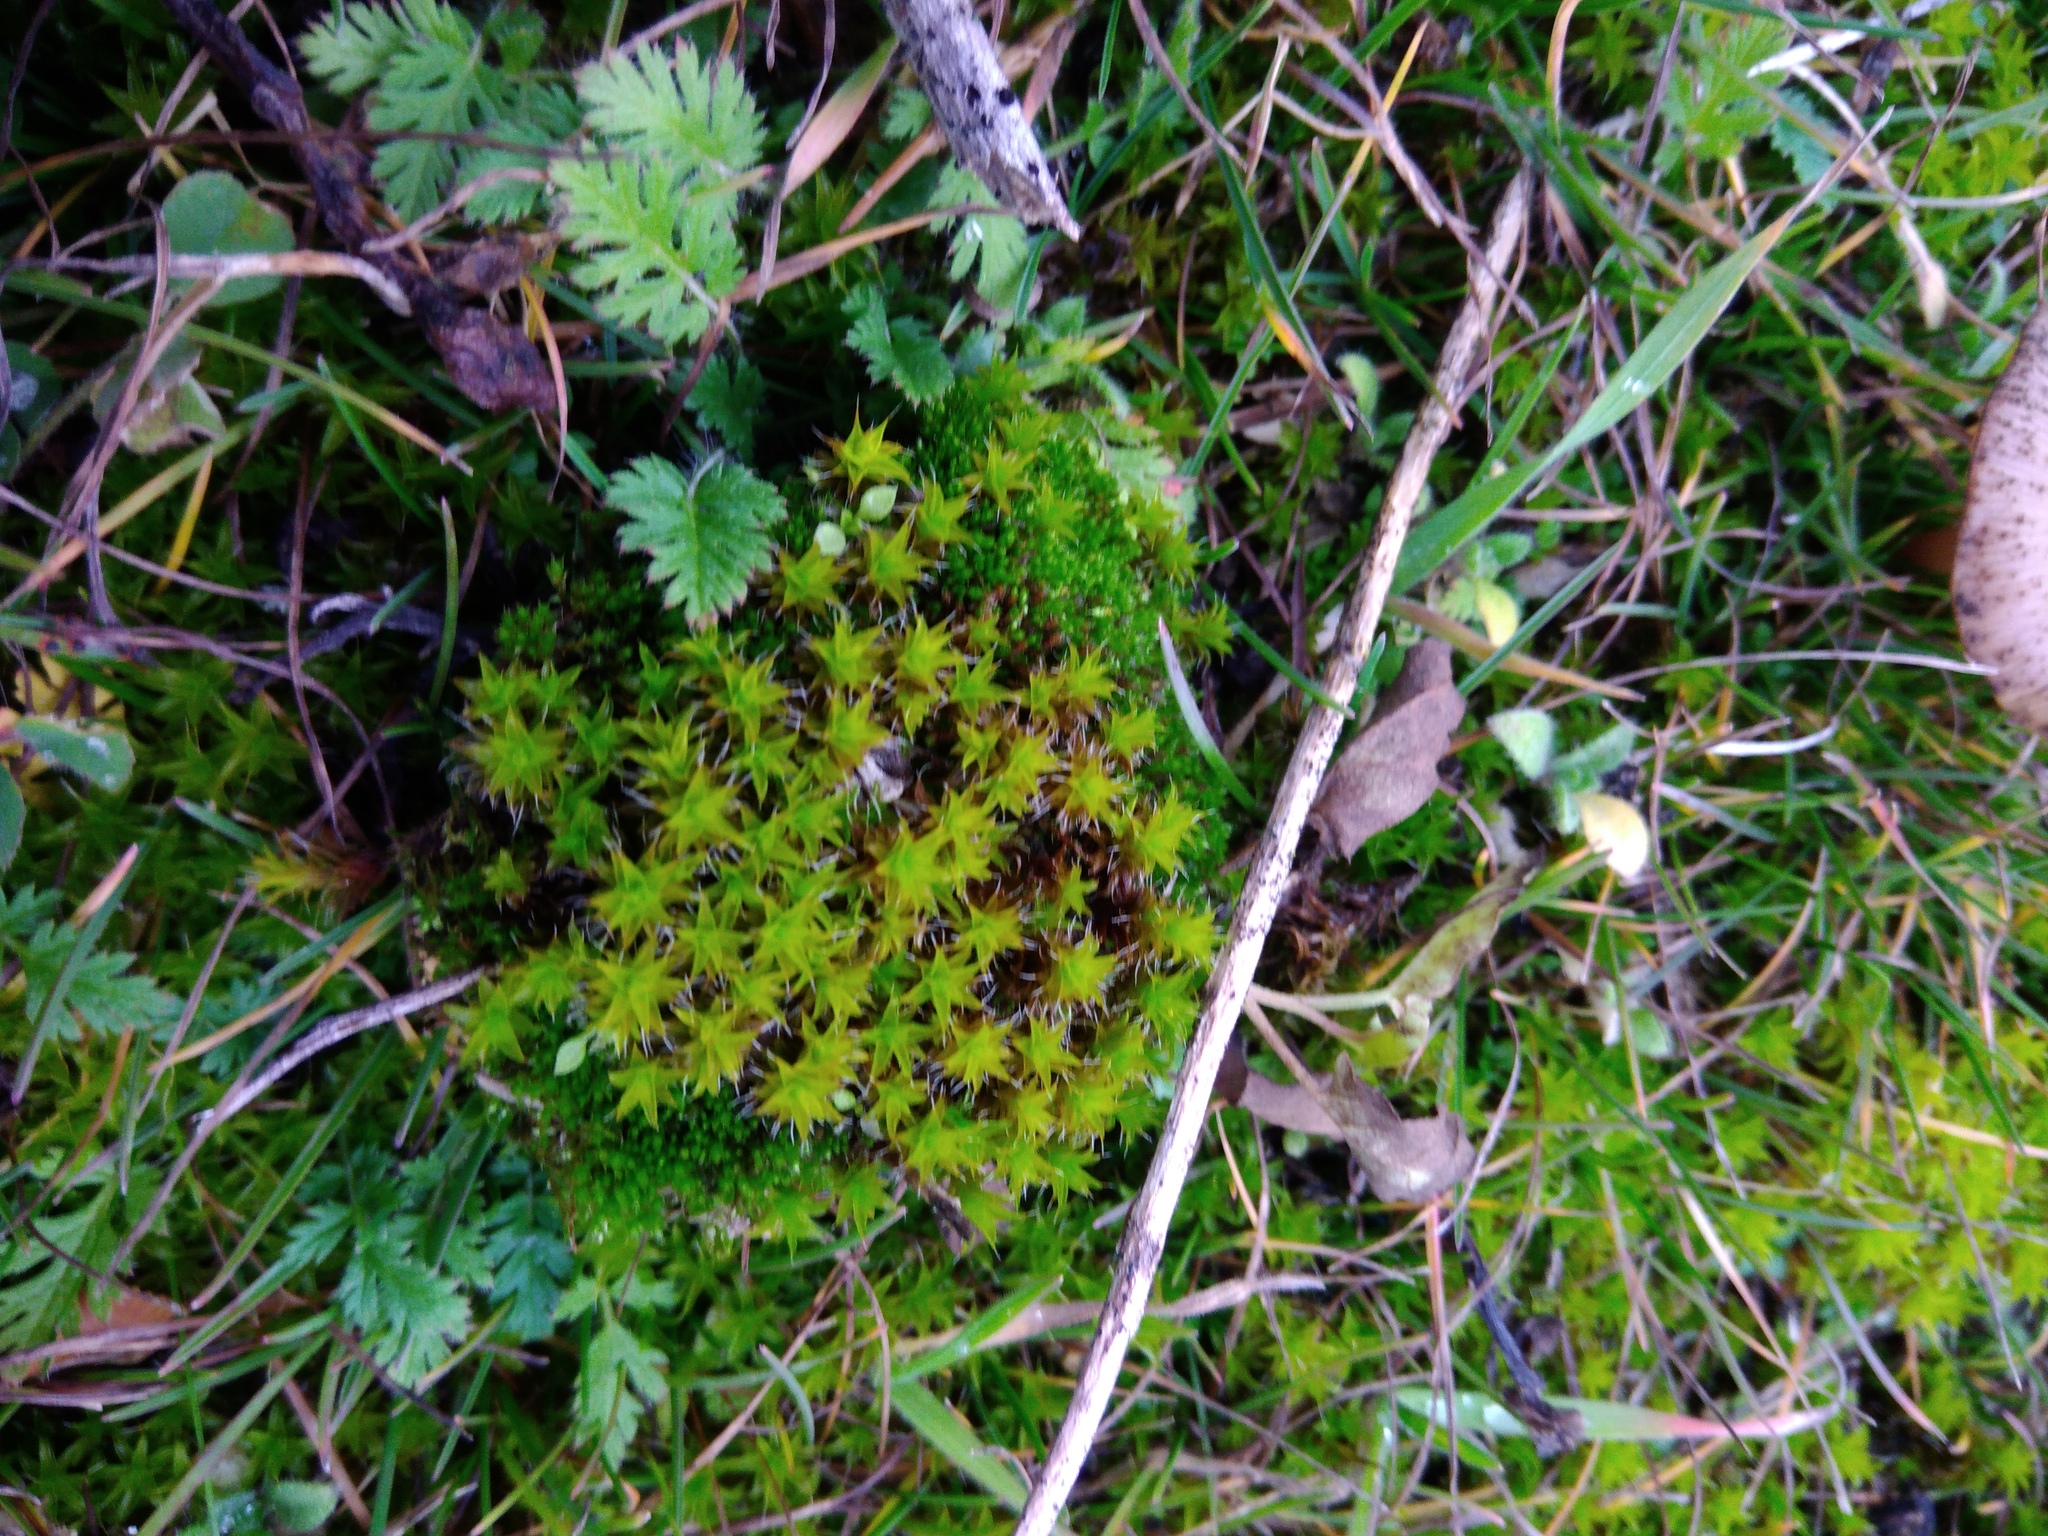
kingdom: Plantae
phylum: Bryophyta
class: Bryopsida
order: Pottiales
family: Pottiaceae
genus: Syntrichia
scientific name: Syntrichia ruralis
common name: Sidewalk screw moss
